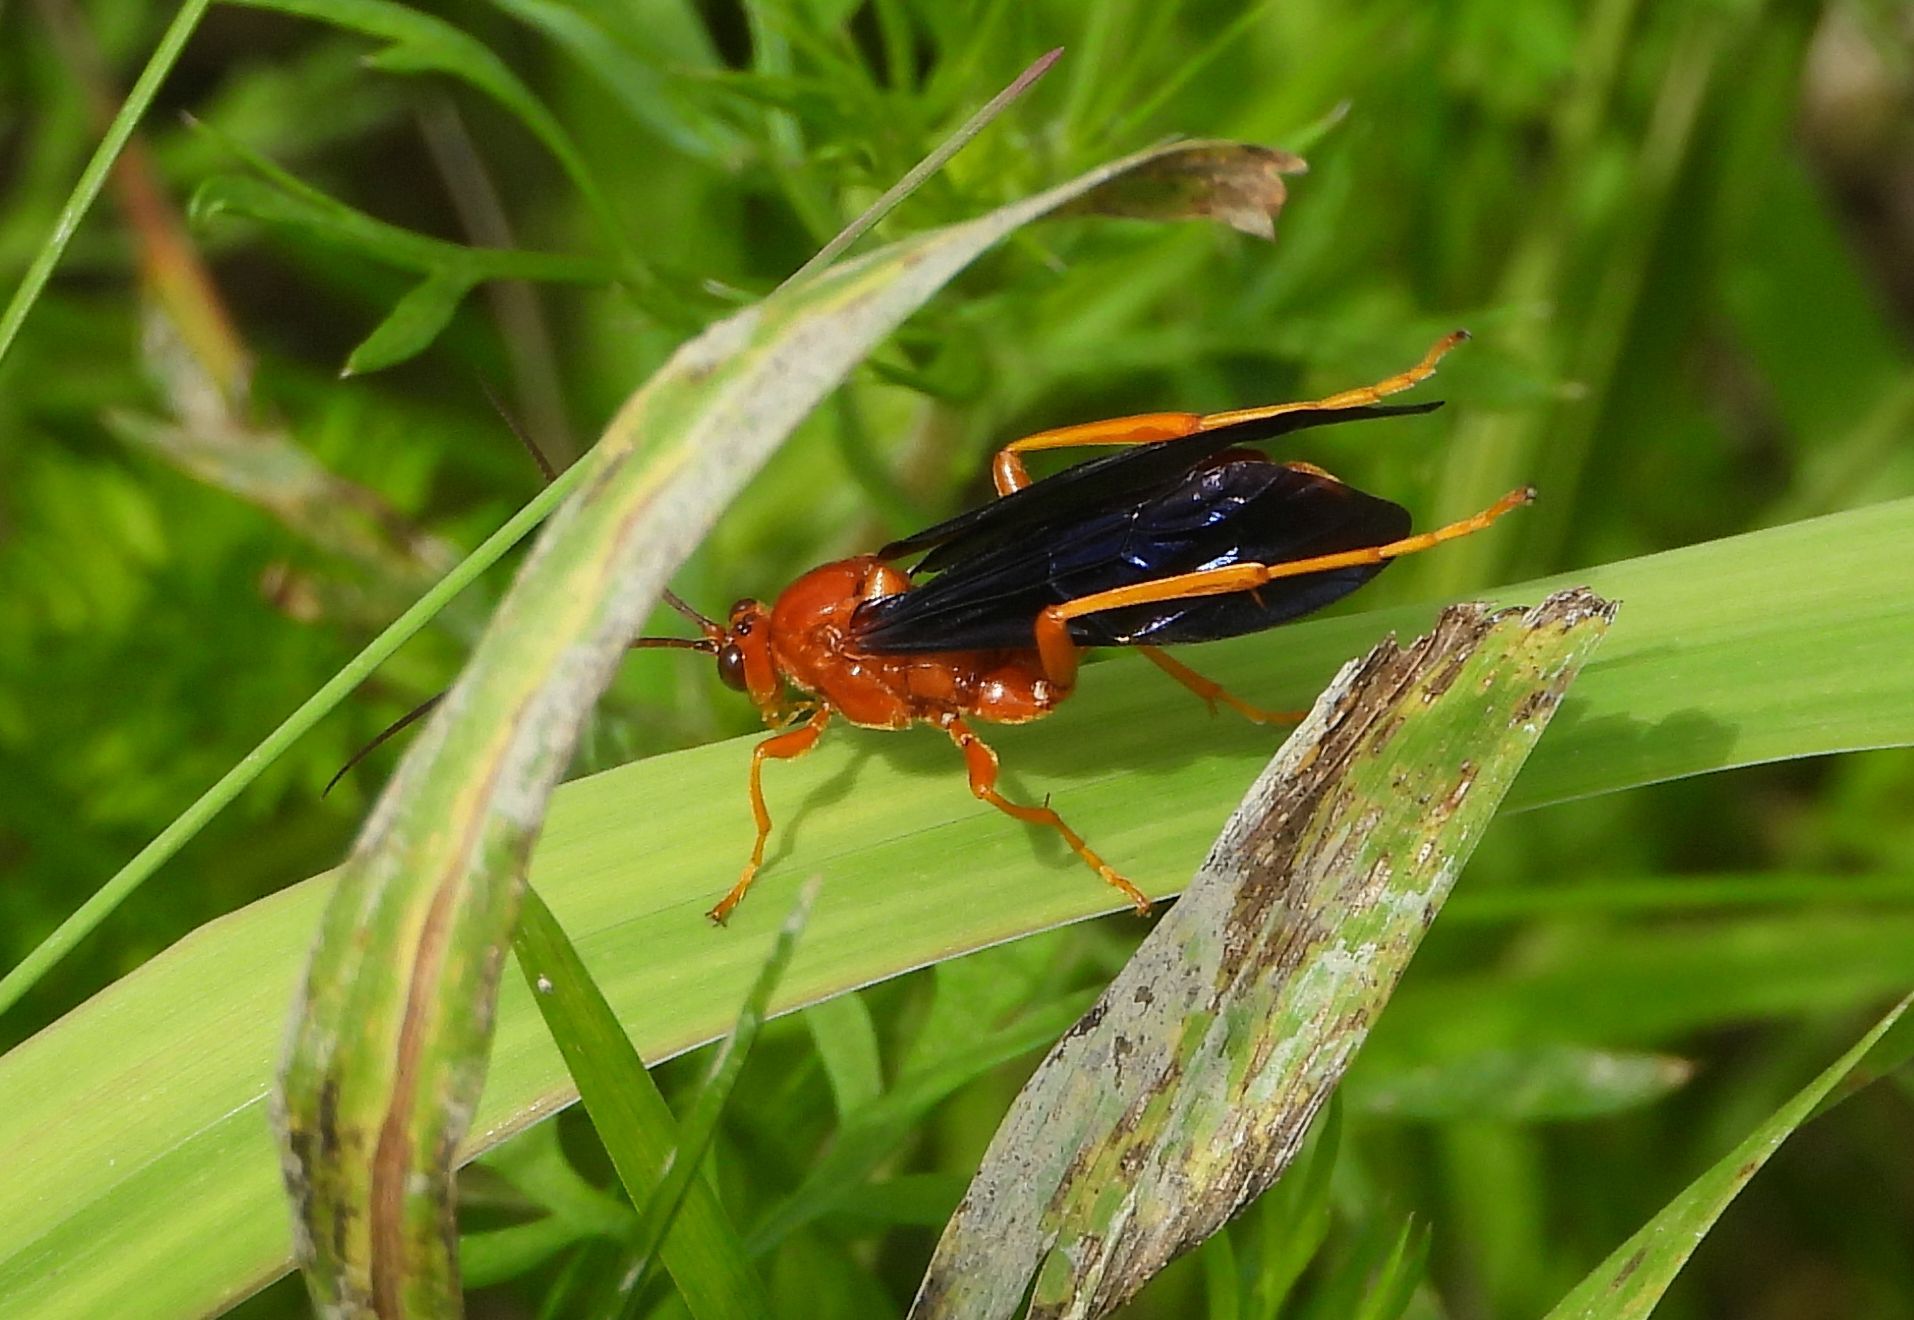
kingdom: Animalia
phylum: Arthropoda
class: Insecta
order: Hymenoptera
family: Ichneumonidae
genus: Trogus
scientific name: Trogus vulpinus
